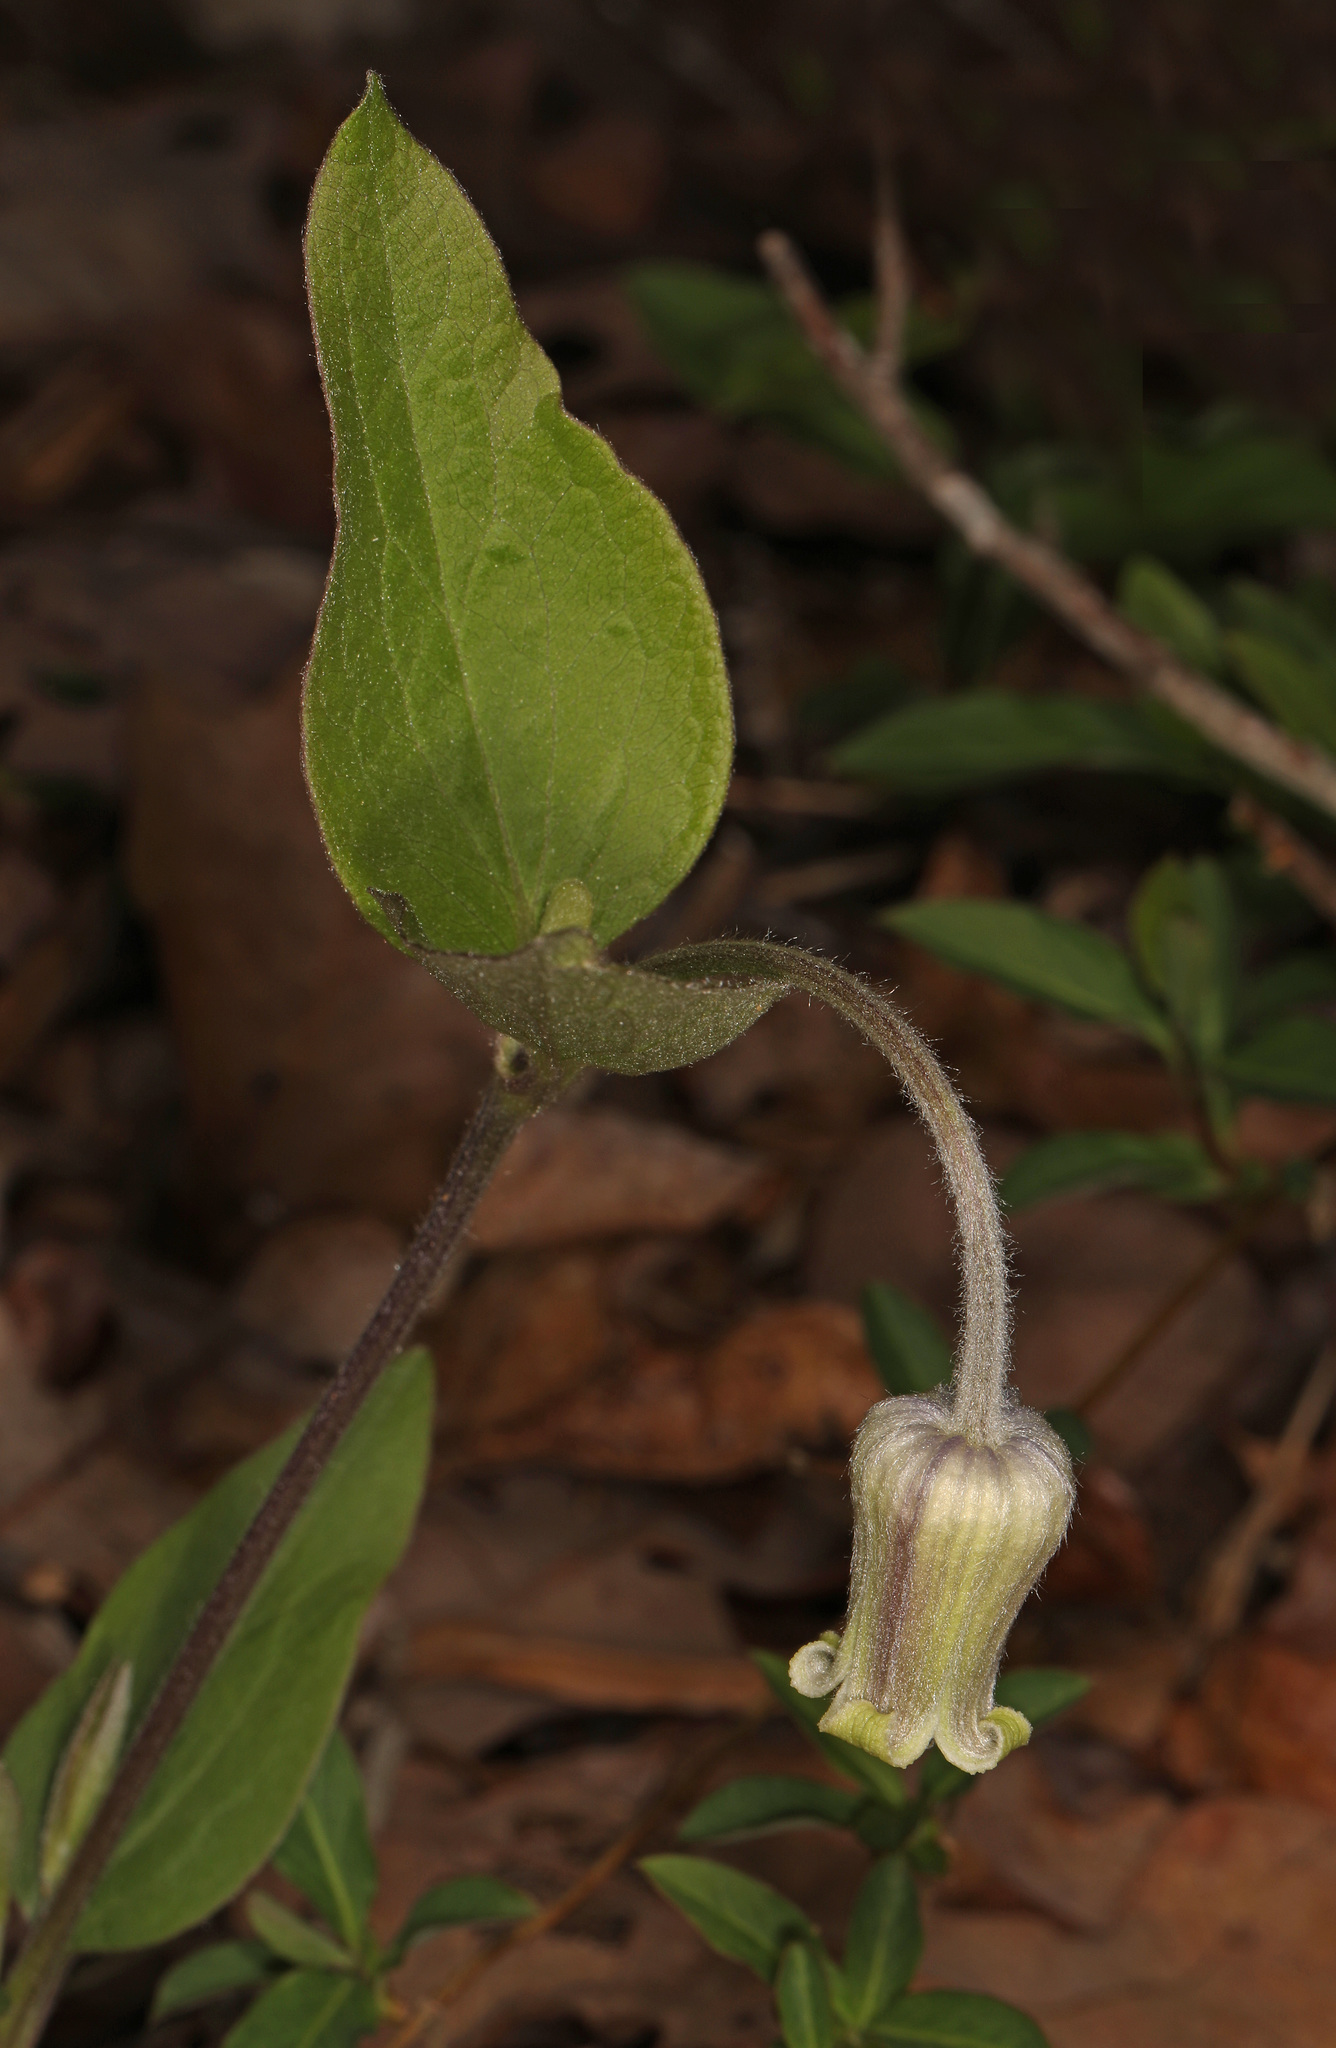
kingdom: Plantae
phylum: Tracheophyta
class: Magnoliopsida
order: Ranunculales
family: Ranunculaceae
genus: Clematis
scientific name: Clematis ochroleuca
